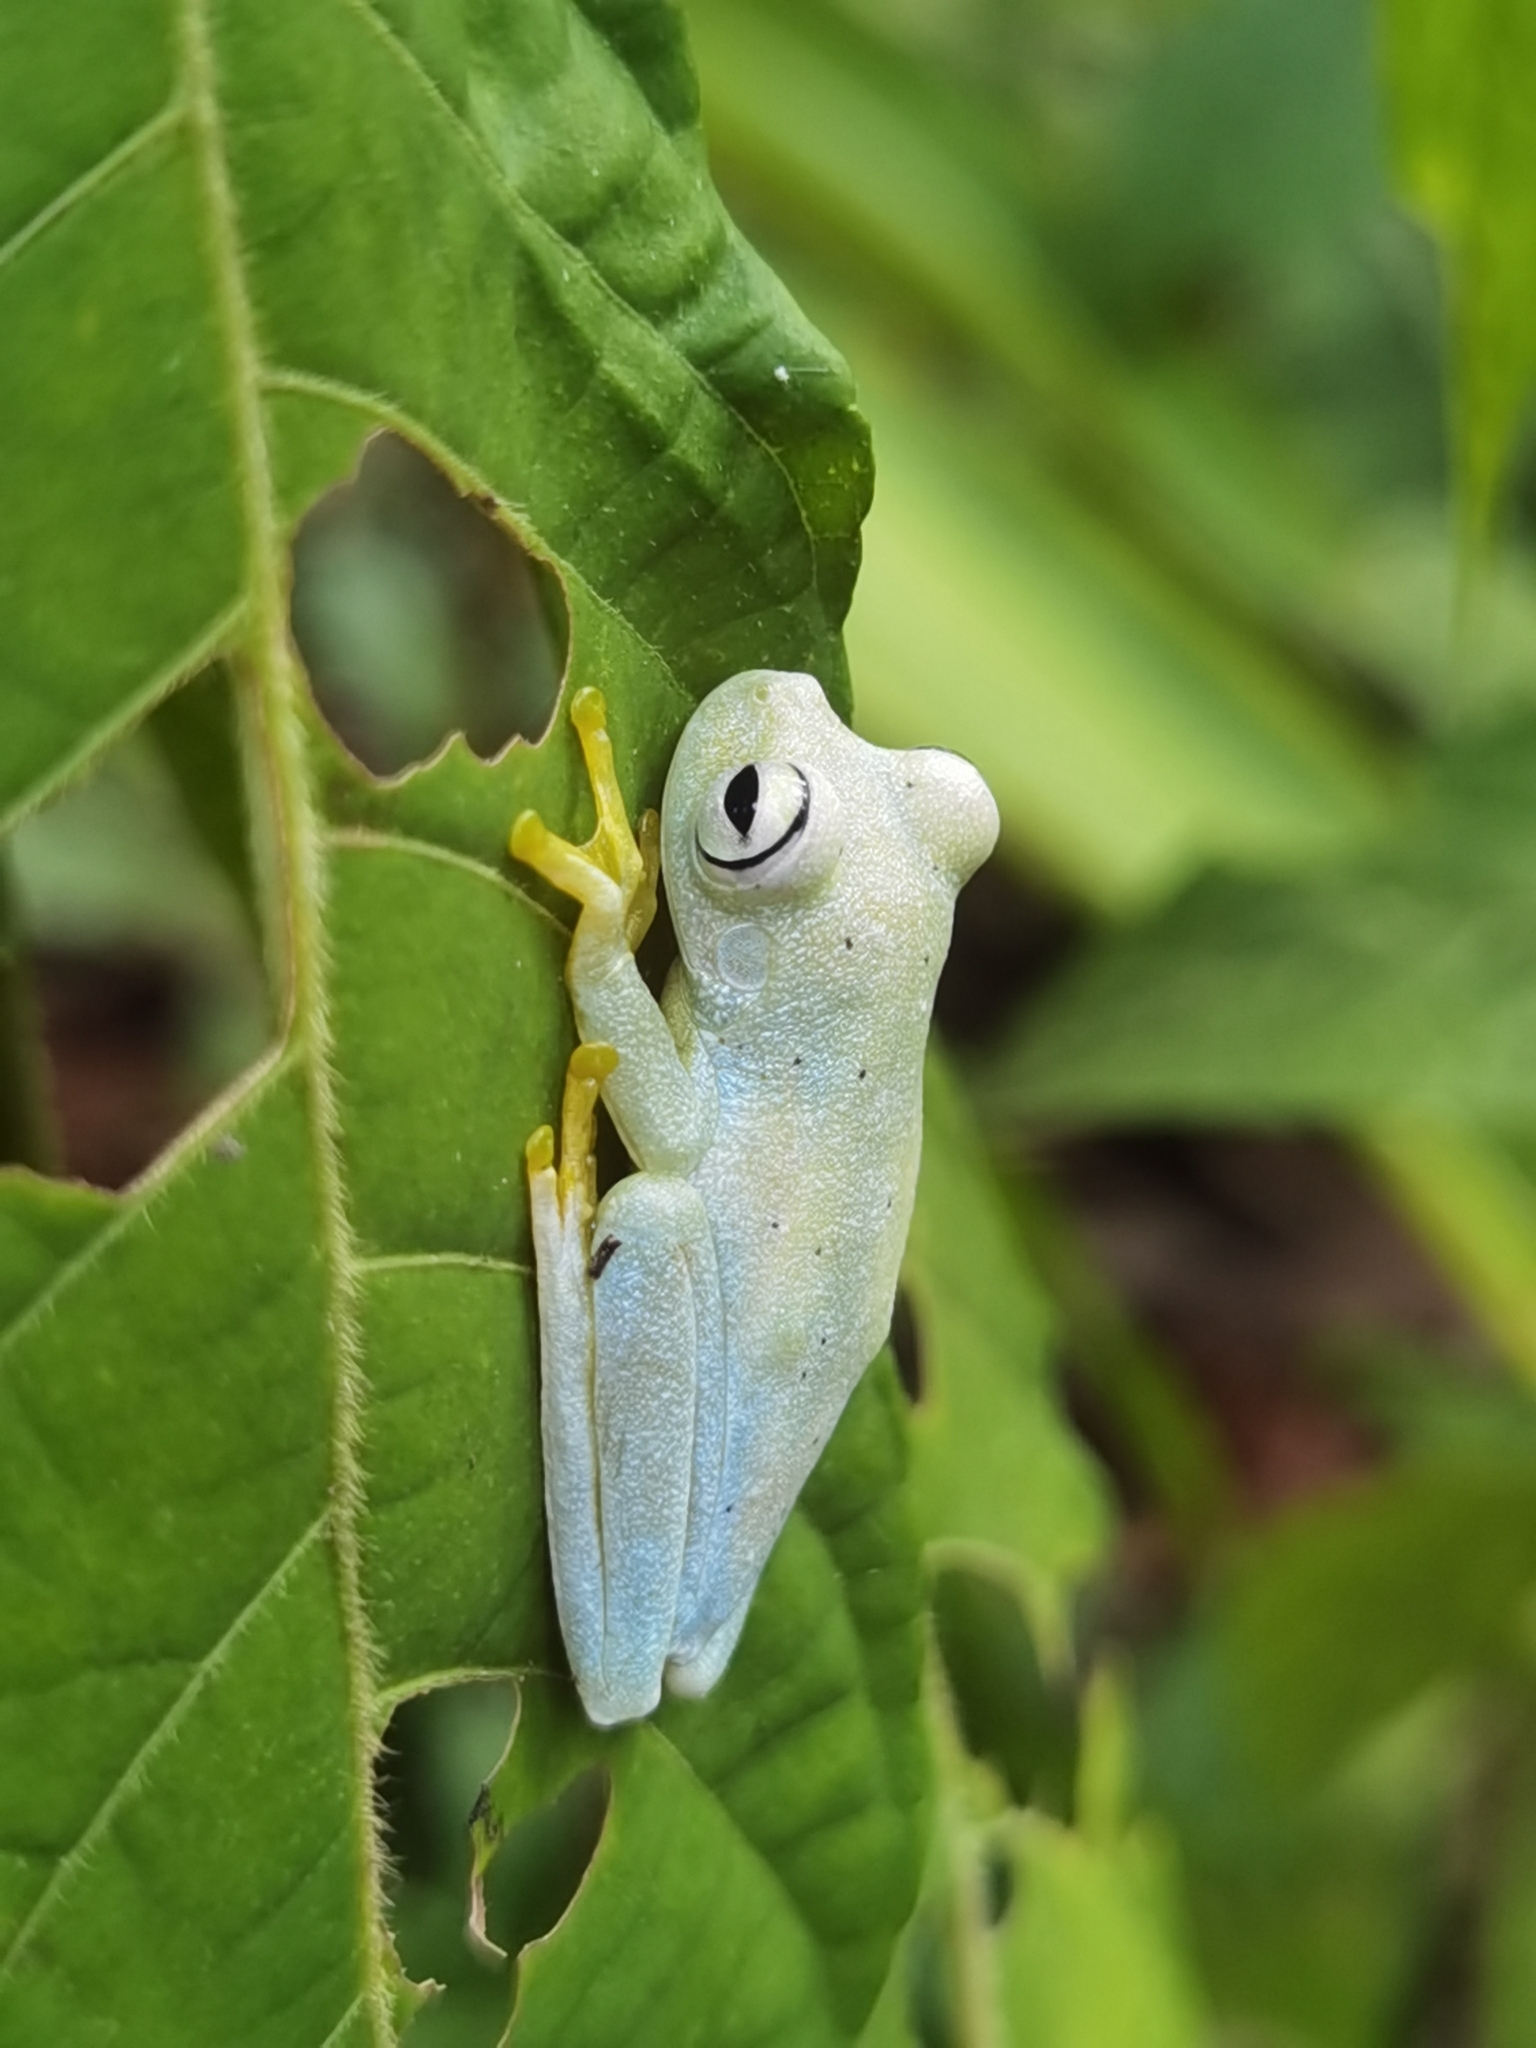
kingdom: Animalia
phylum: Chordata
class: Amphibia
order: Anura
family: Hylidae
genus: Boana
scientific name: Boana rosenbergi
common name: Rosenberg´s gladiator treefrog
